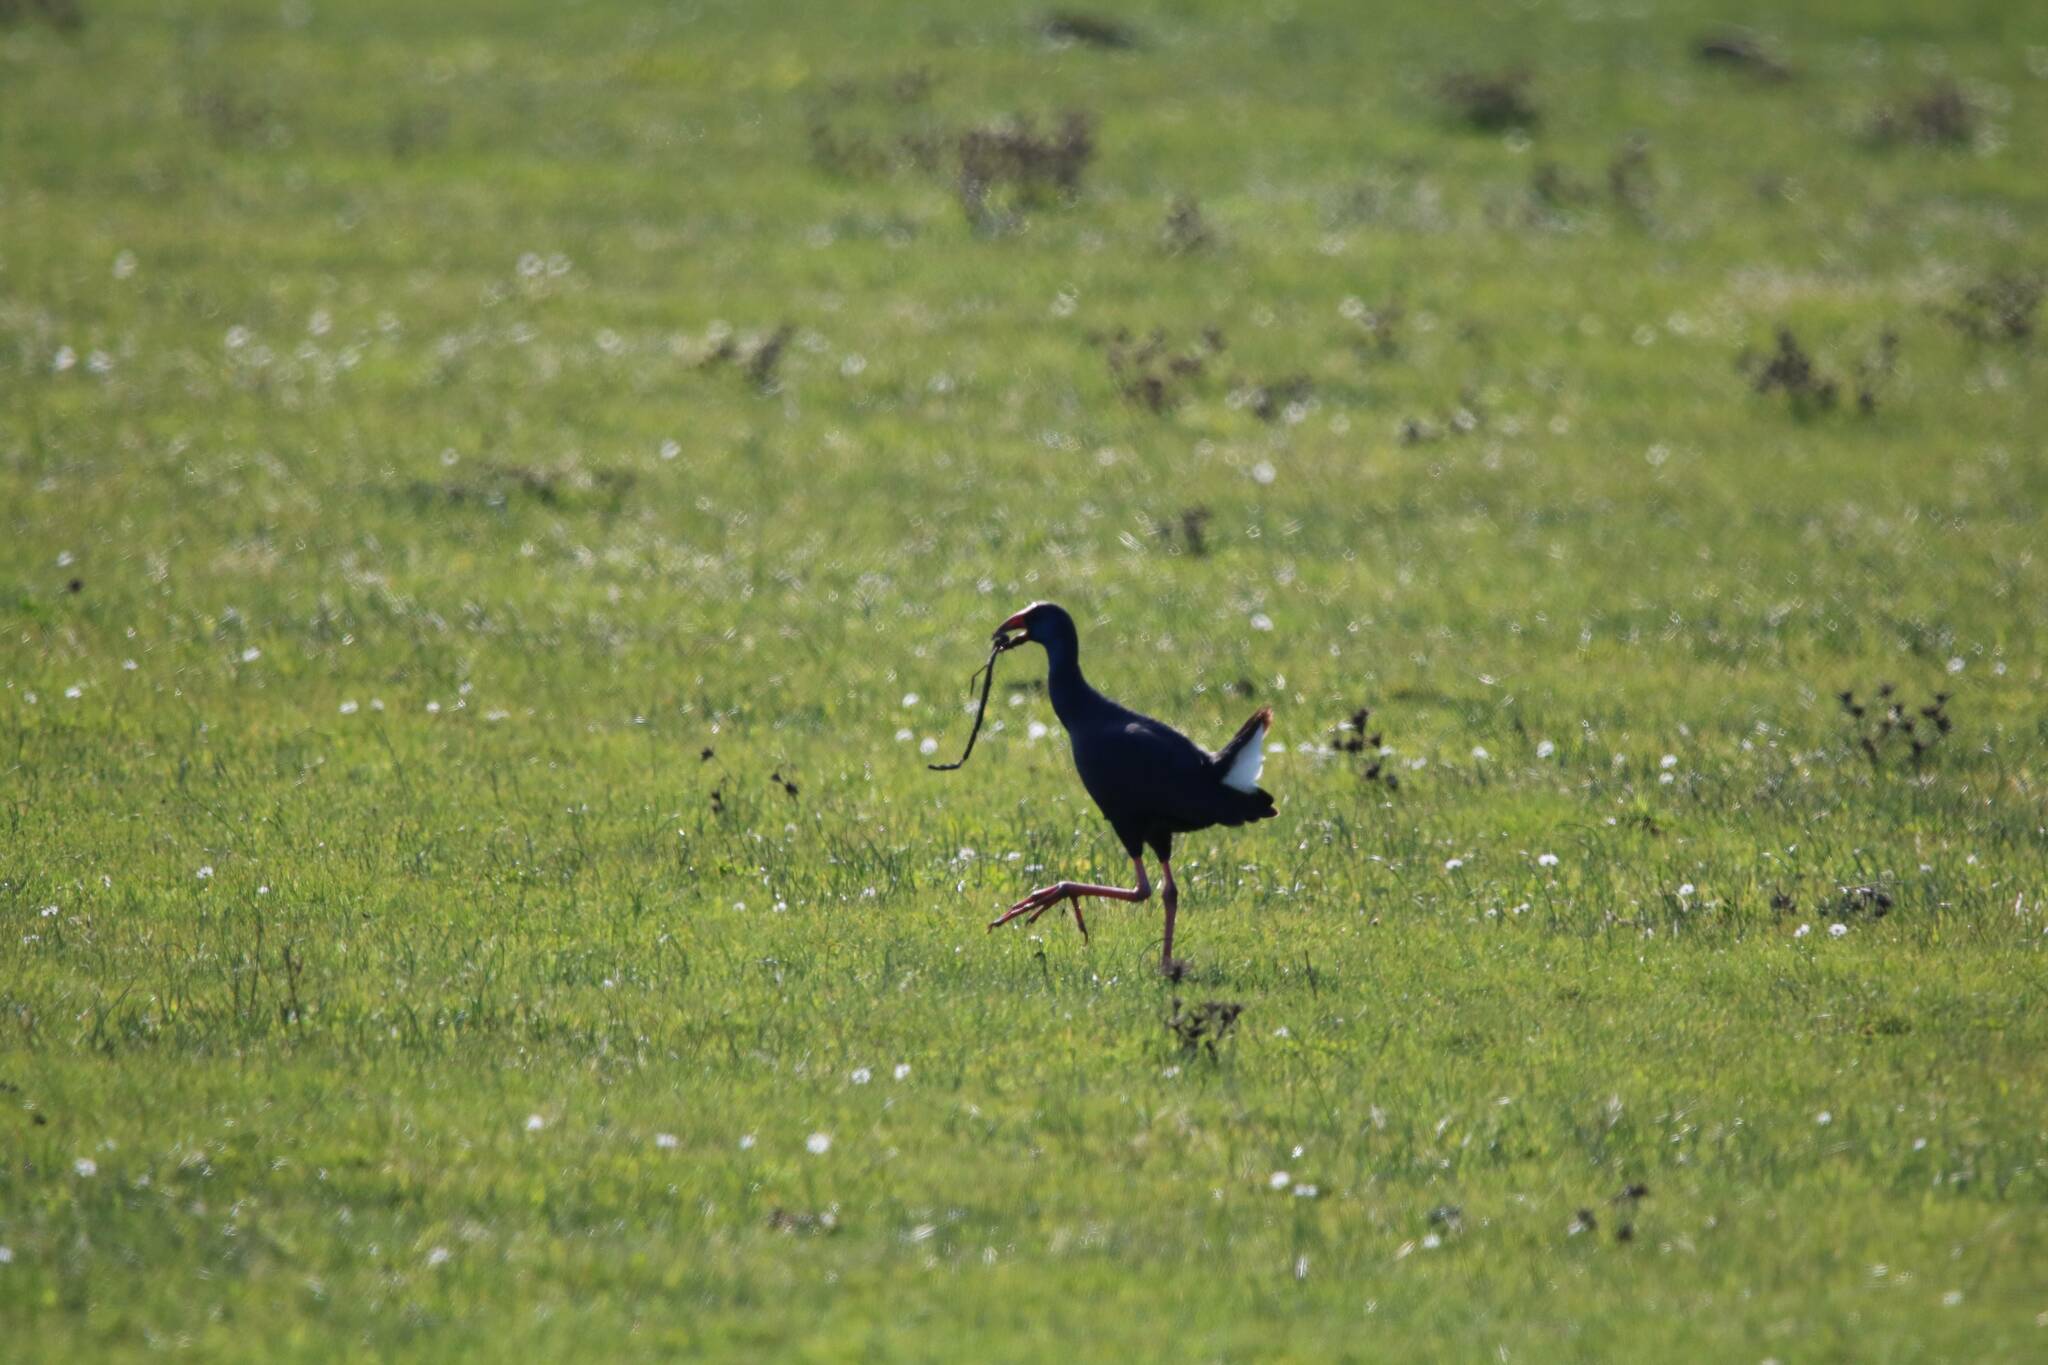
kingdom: Animalia
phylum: Chordata
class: Aves
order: Gruiformes
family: Rallidae
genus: Porphyrio
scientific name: Porphyrio porphyrio
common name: Purple swamphen
